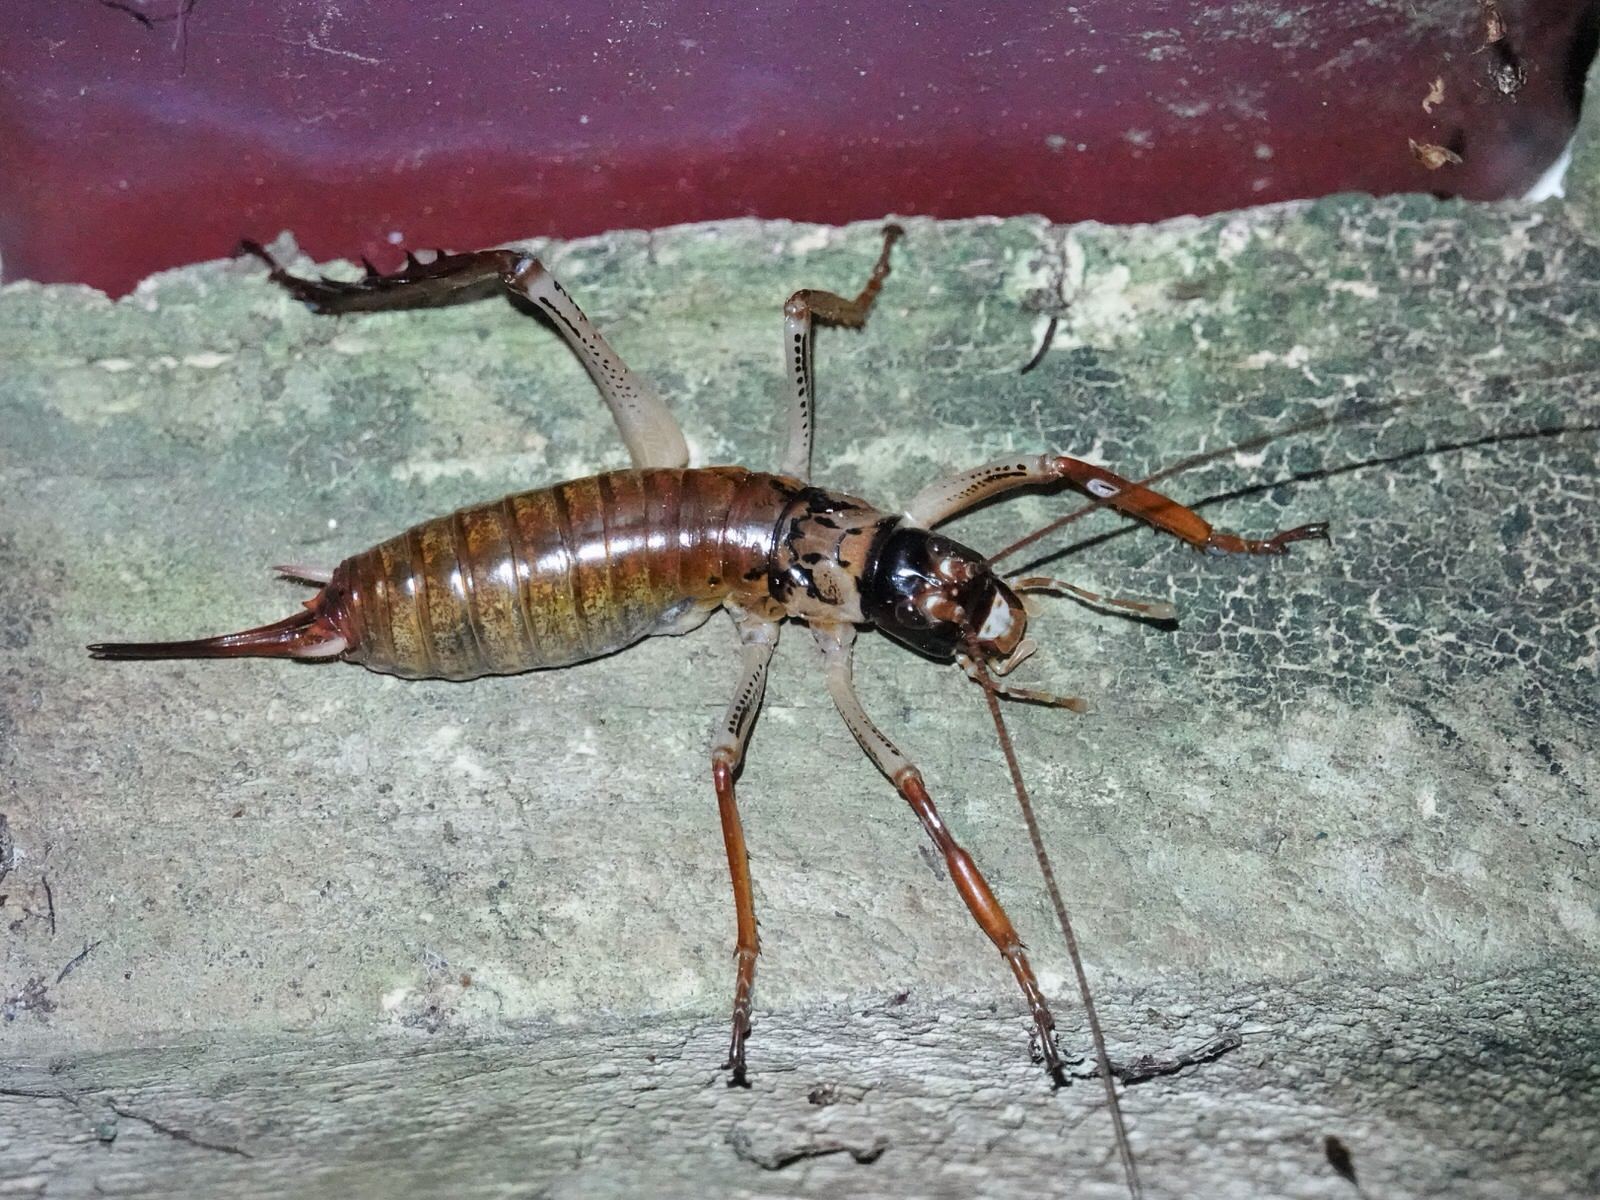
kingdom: Animalia
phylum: Arthropoda
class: Insecta
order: Orthoptera
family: Anostostomatidae
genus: Hemideina
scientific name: Hemideina thoracica
